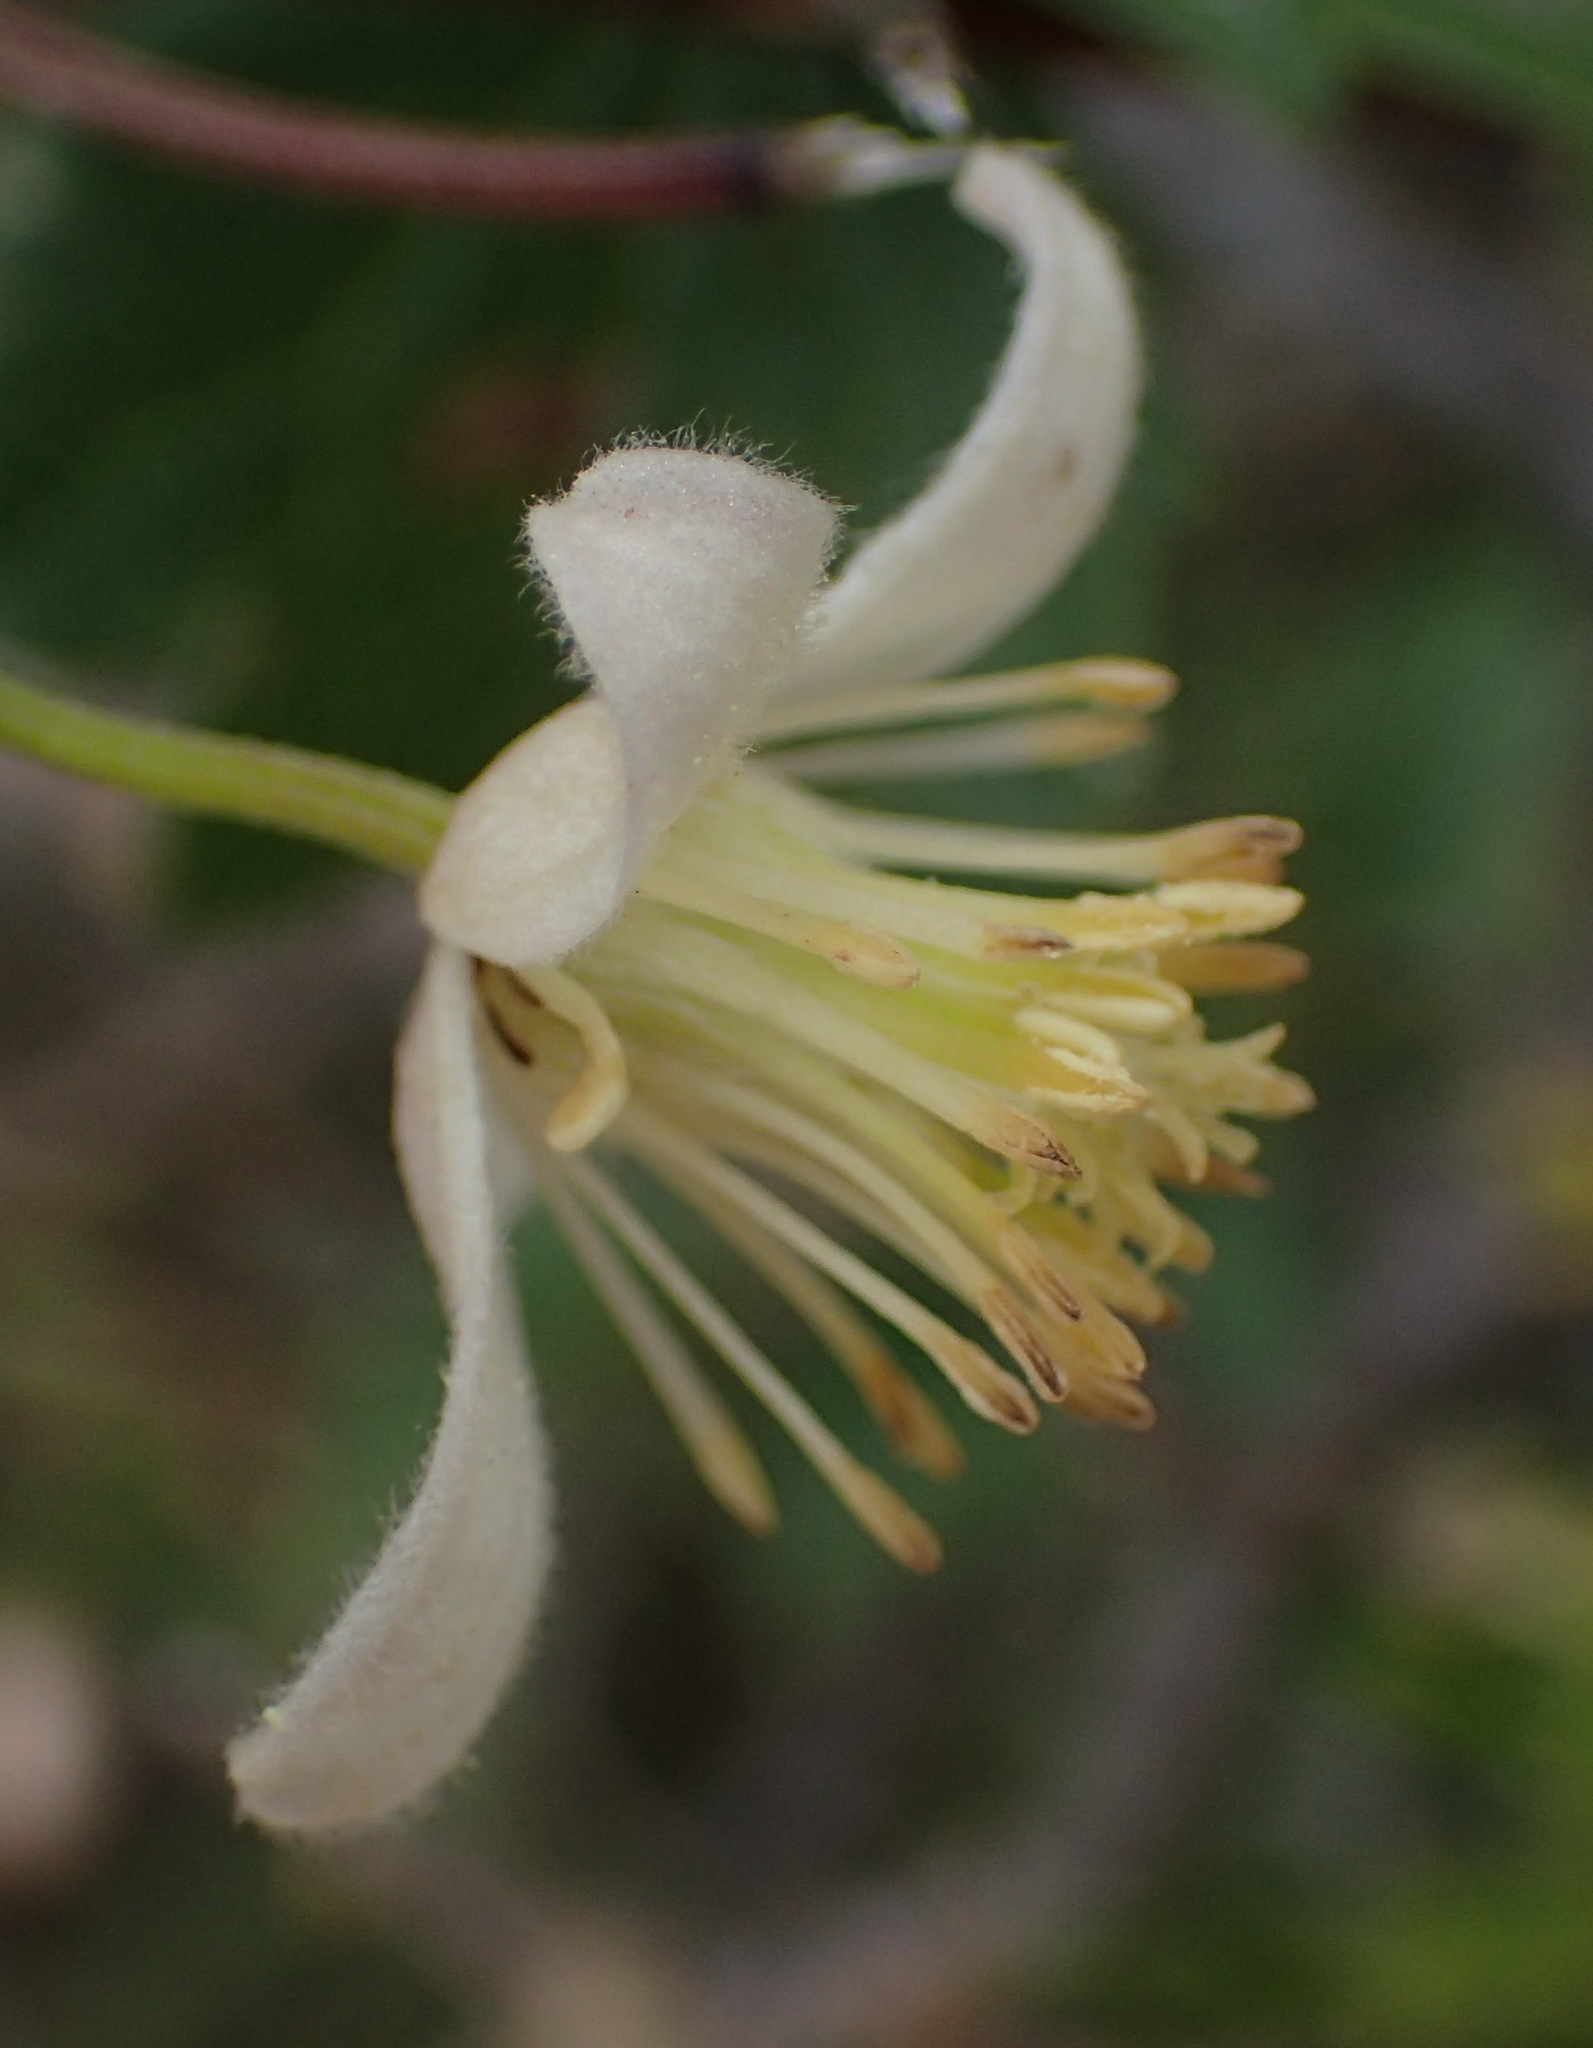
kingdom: Plantae
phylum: Tracheophyta
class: Magnoliopsida
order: Ranunculales
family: Ranunculaceae
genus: Clematis
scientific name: Clematis brachiata
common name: Traveler's-joy
